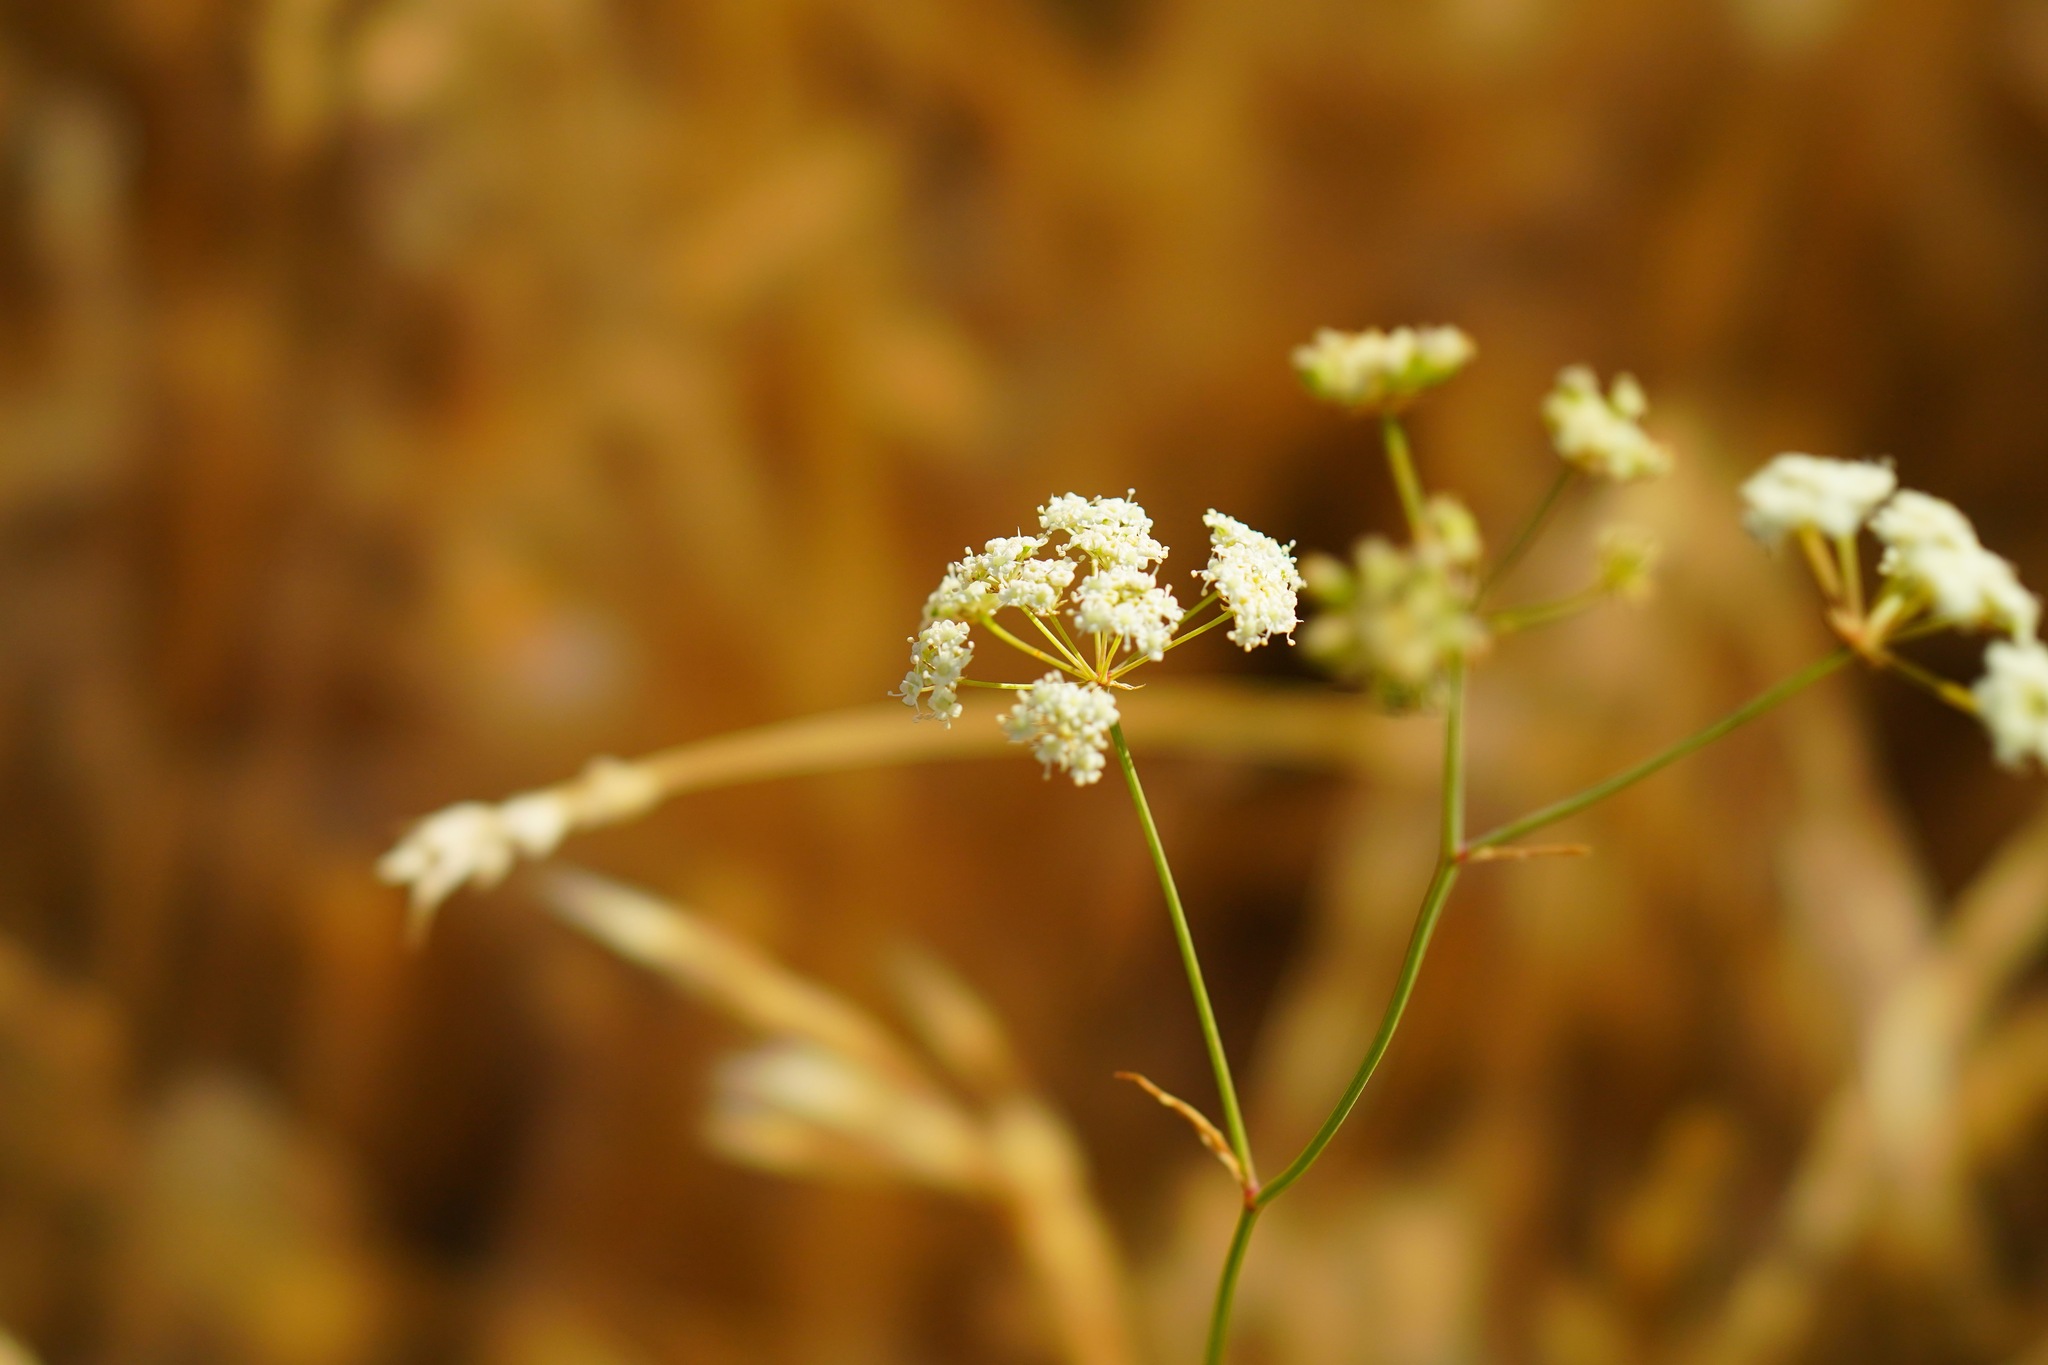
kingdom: Plantae
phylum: Tracheophyta
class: Magnoliopsida
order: Apiales
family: Apiaceae
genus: Perideridia
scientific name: Perideridia kelloggii
